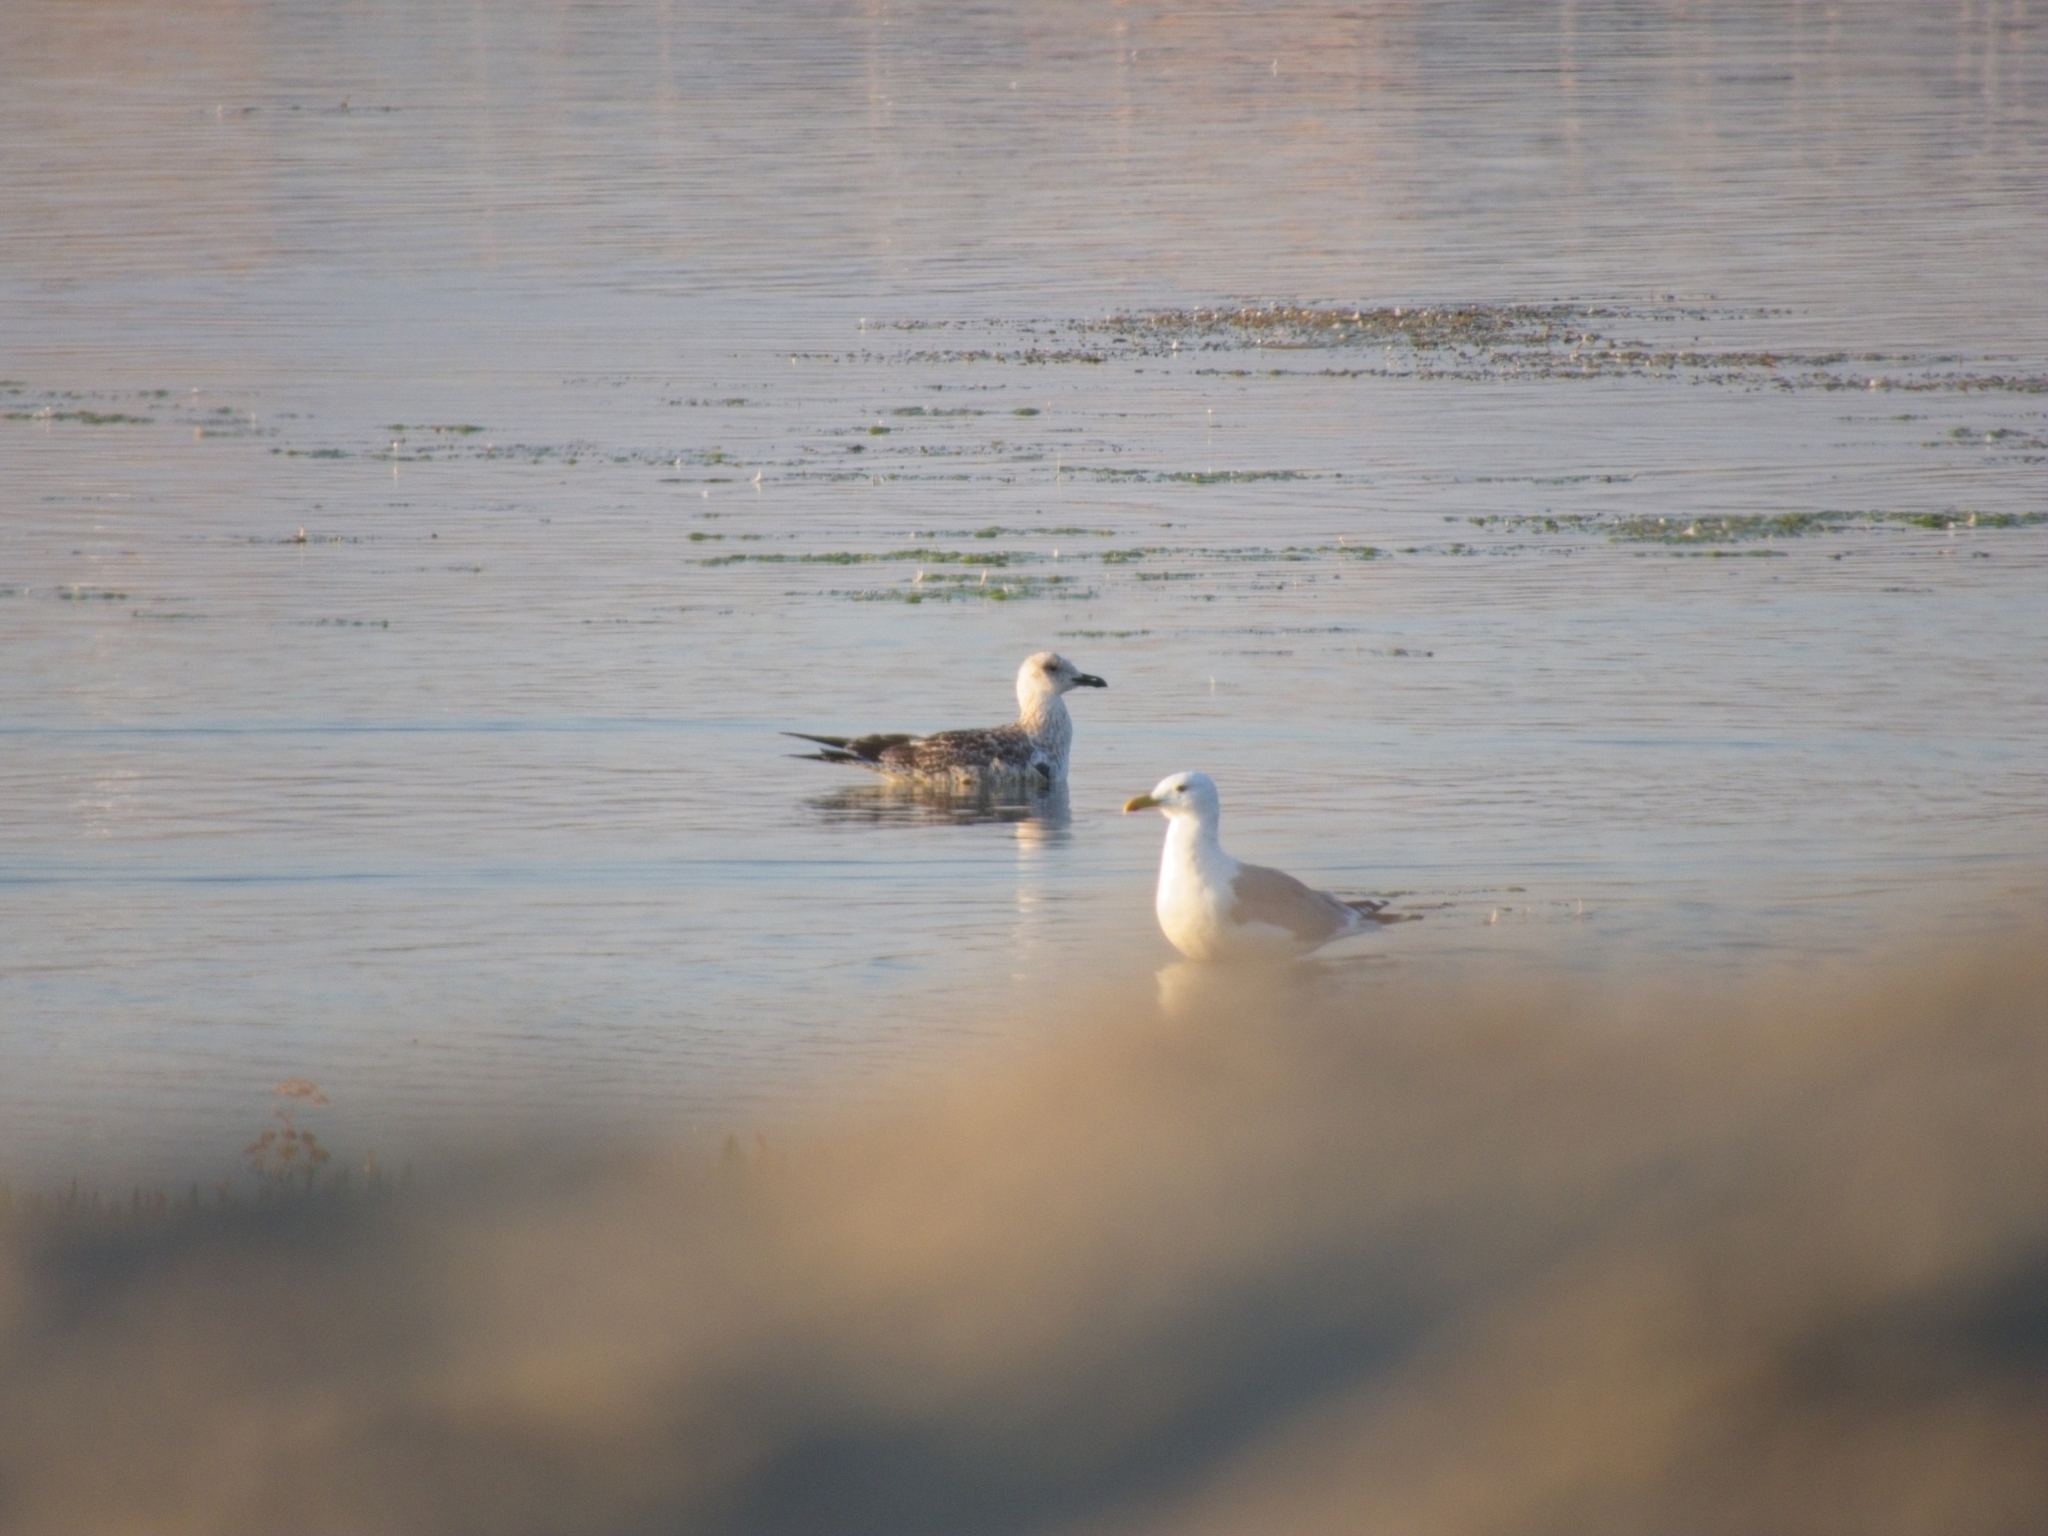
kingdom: Animalia
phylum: Chordata
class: Aves
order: Charadriiformes
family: Laridae
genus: Larus
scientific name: Larus vegae
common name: Vega gull
